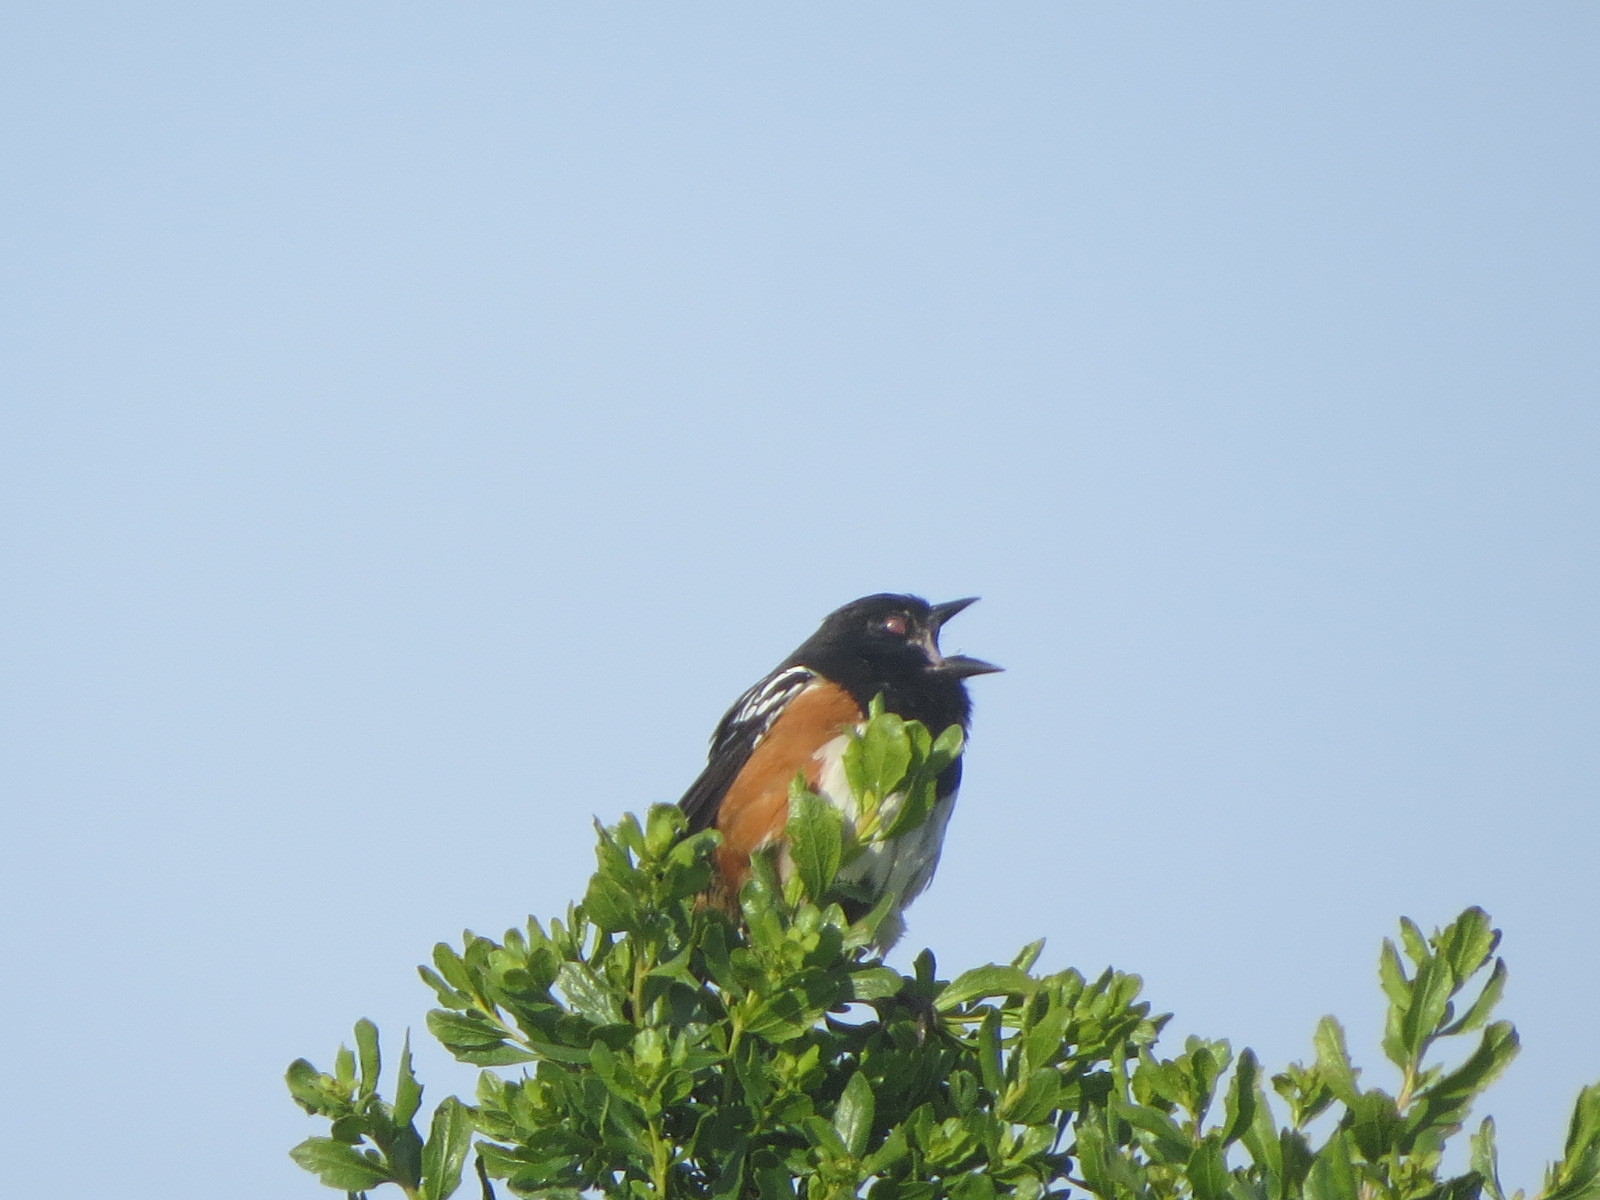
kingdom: Animalia
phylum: Chordata
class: Aves
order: Passeriformes
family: Passerellidae
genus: Pipilo
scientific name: Pipilo maculatus
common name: Spotted towhee
